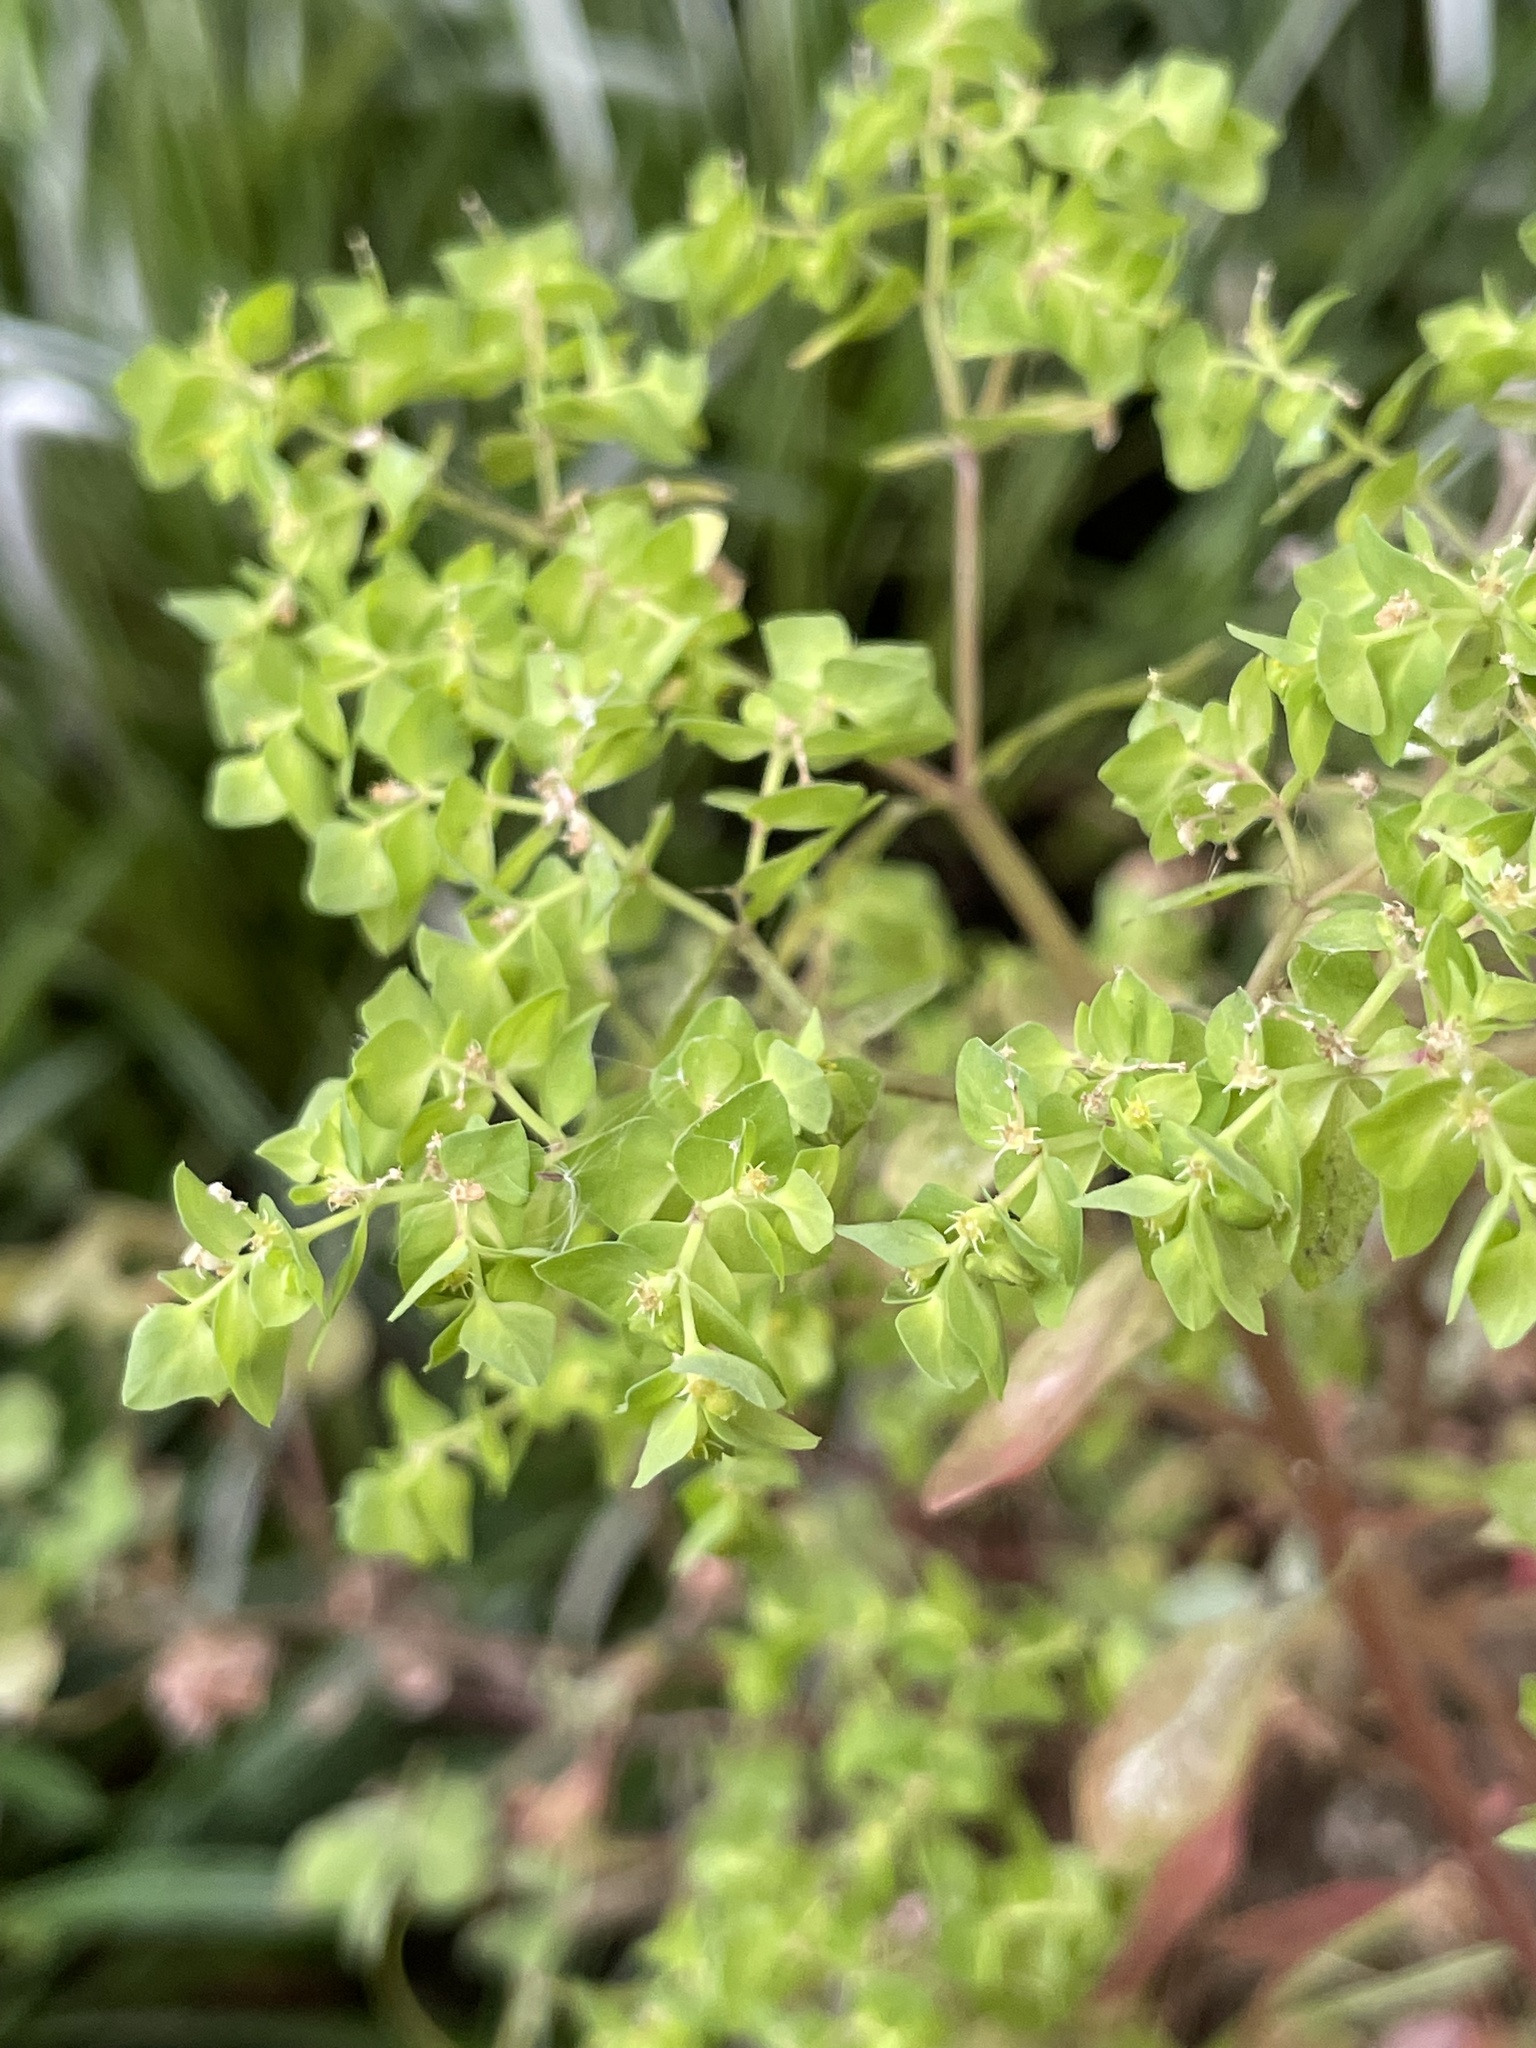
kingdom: Plantae
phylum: Tracheophyta
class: Magnoliopsida
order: Malpighiales
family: Euphorbiaceae
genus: Euphorbia
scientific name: Euphorbia peplus
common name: Petty spurge
